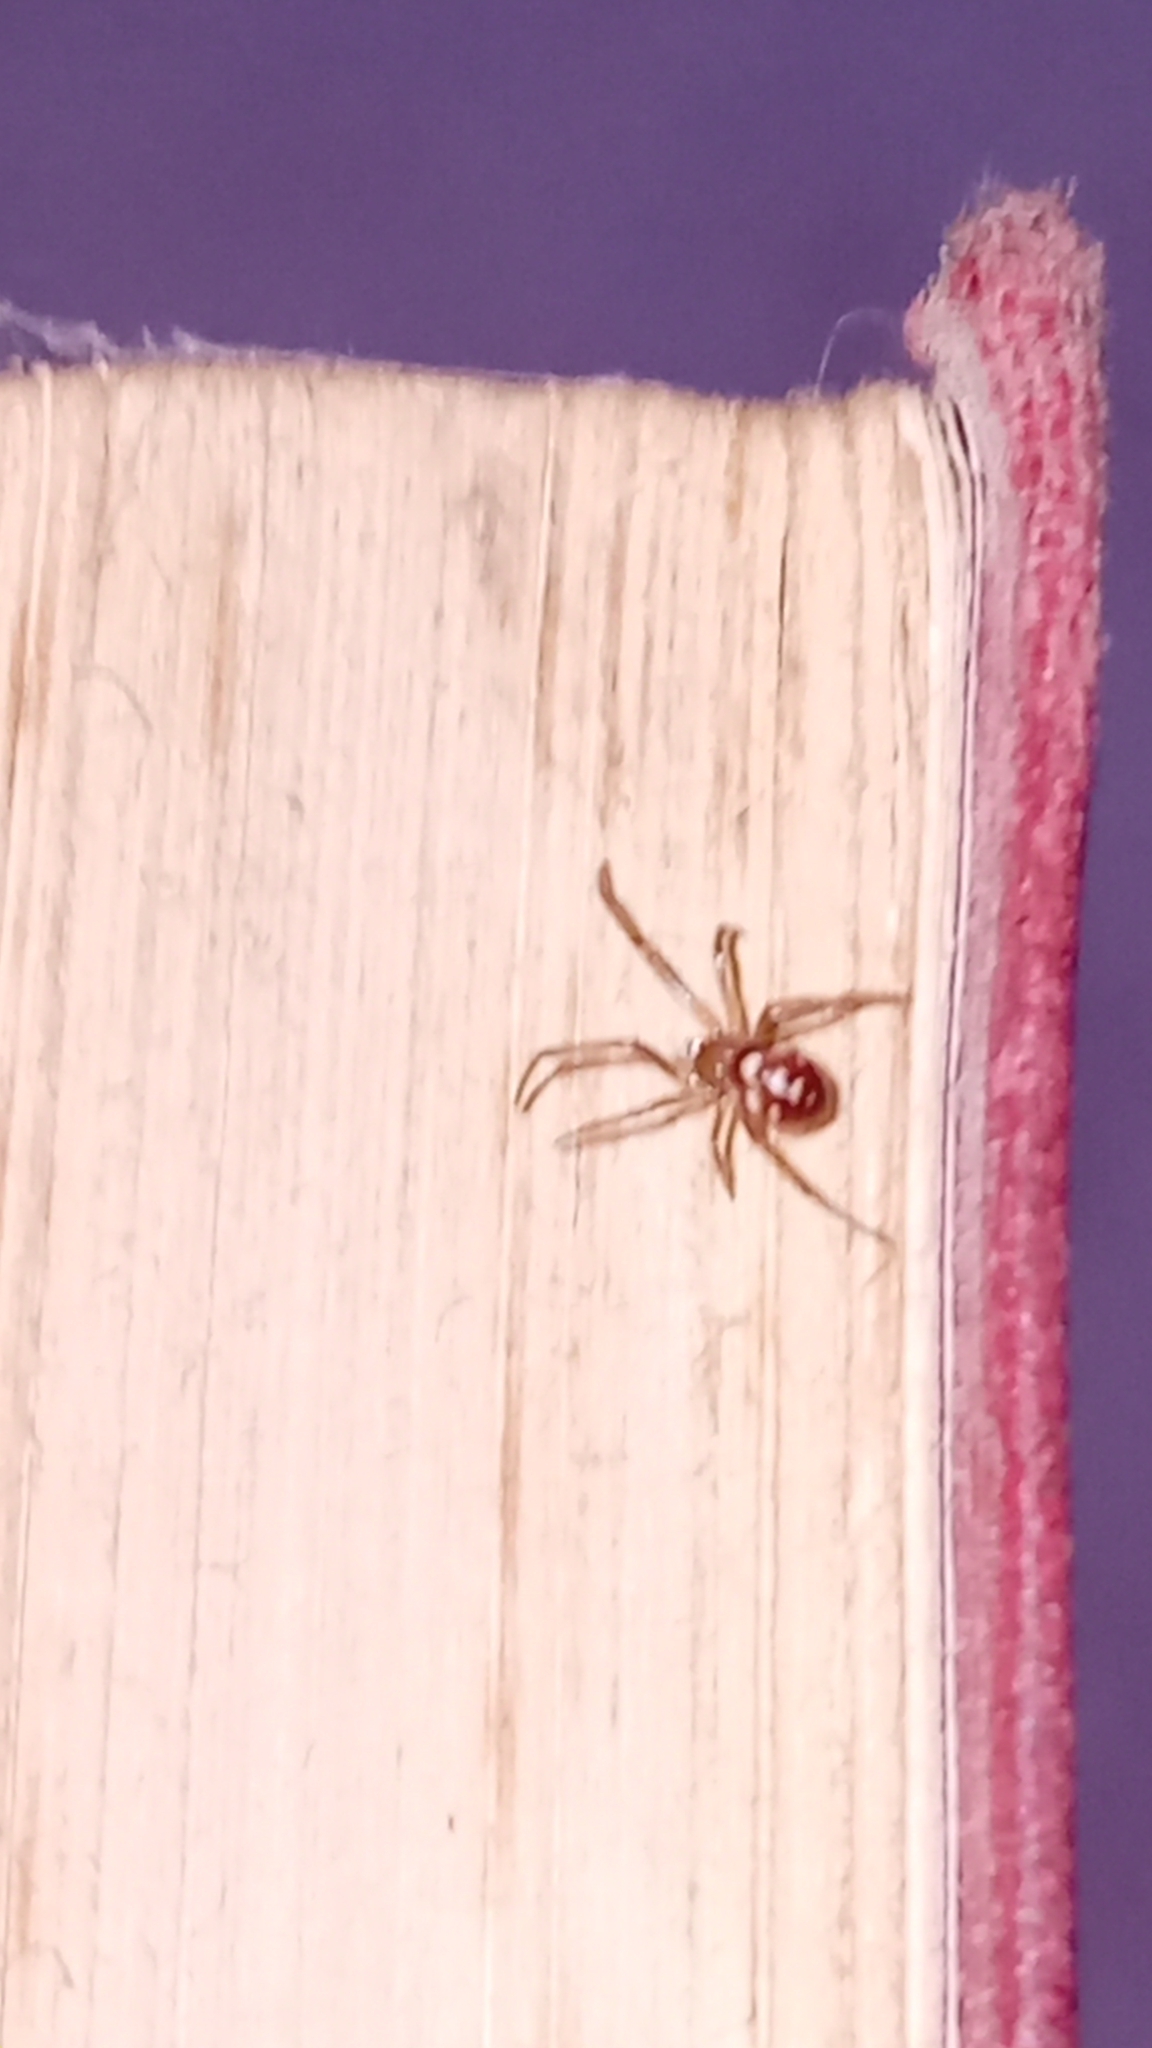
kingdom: Animalia
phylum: Arthropoda
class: Arachnida
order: Araneae
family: Theridiidae
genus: Steatoda
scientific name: Steatoda grossa
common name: False black widow
